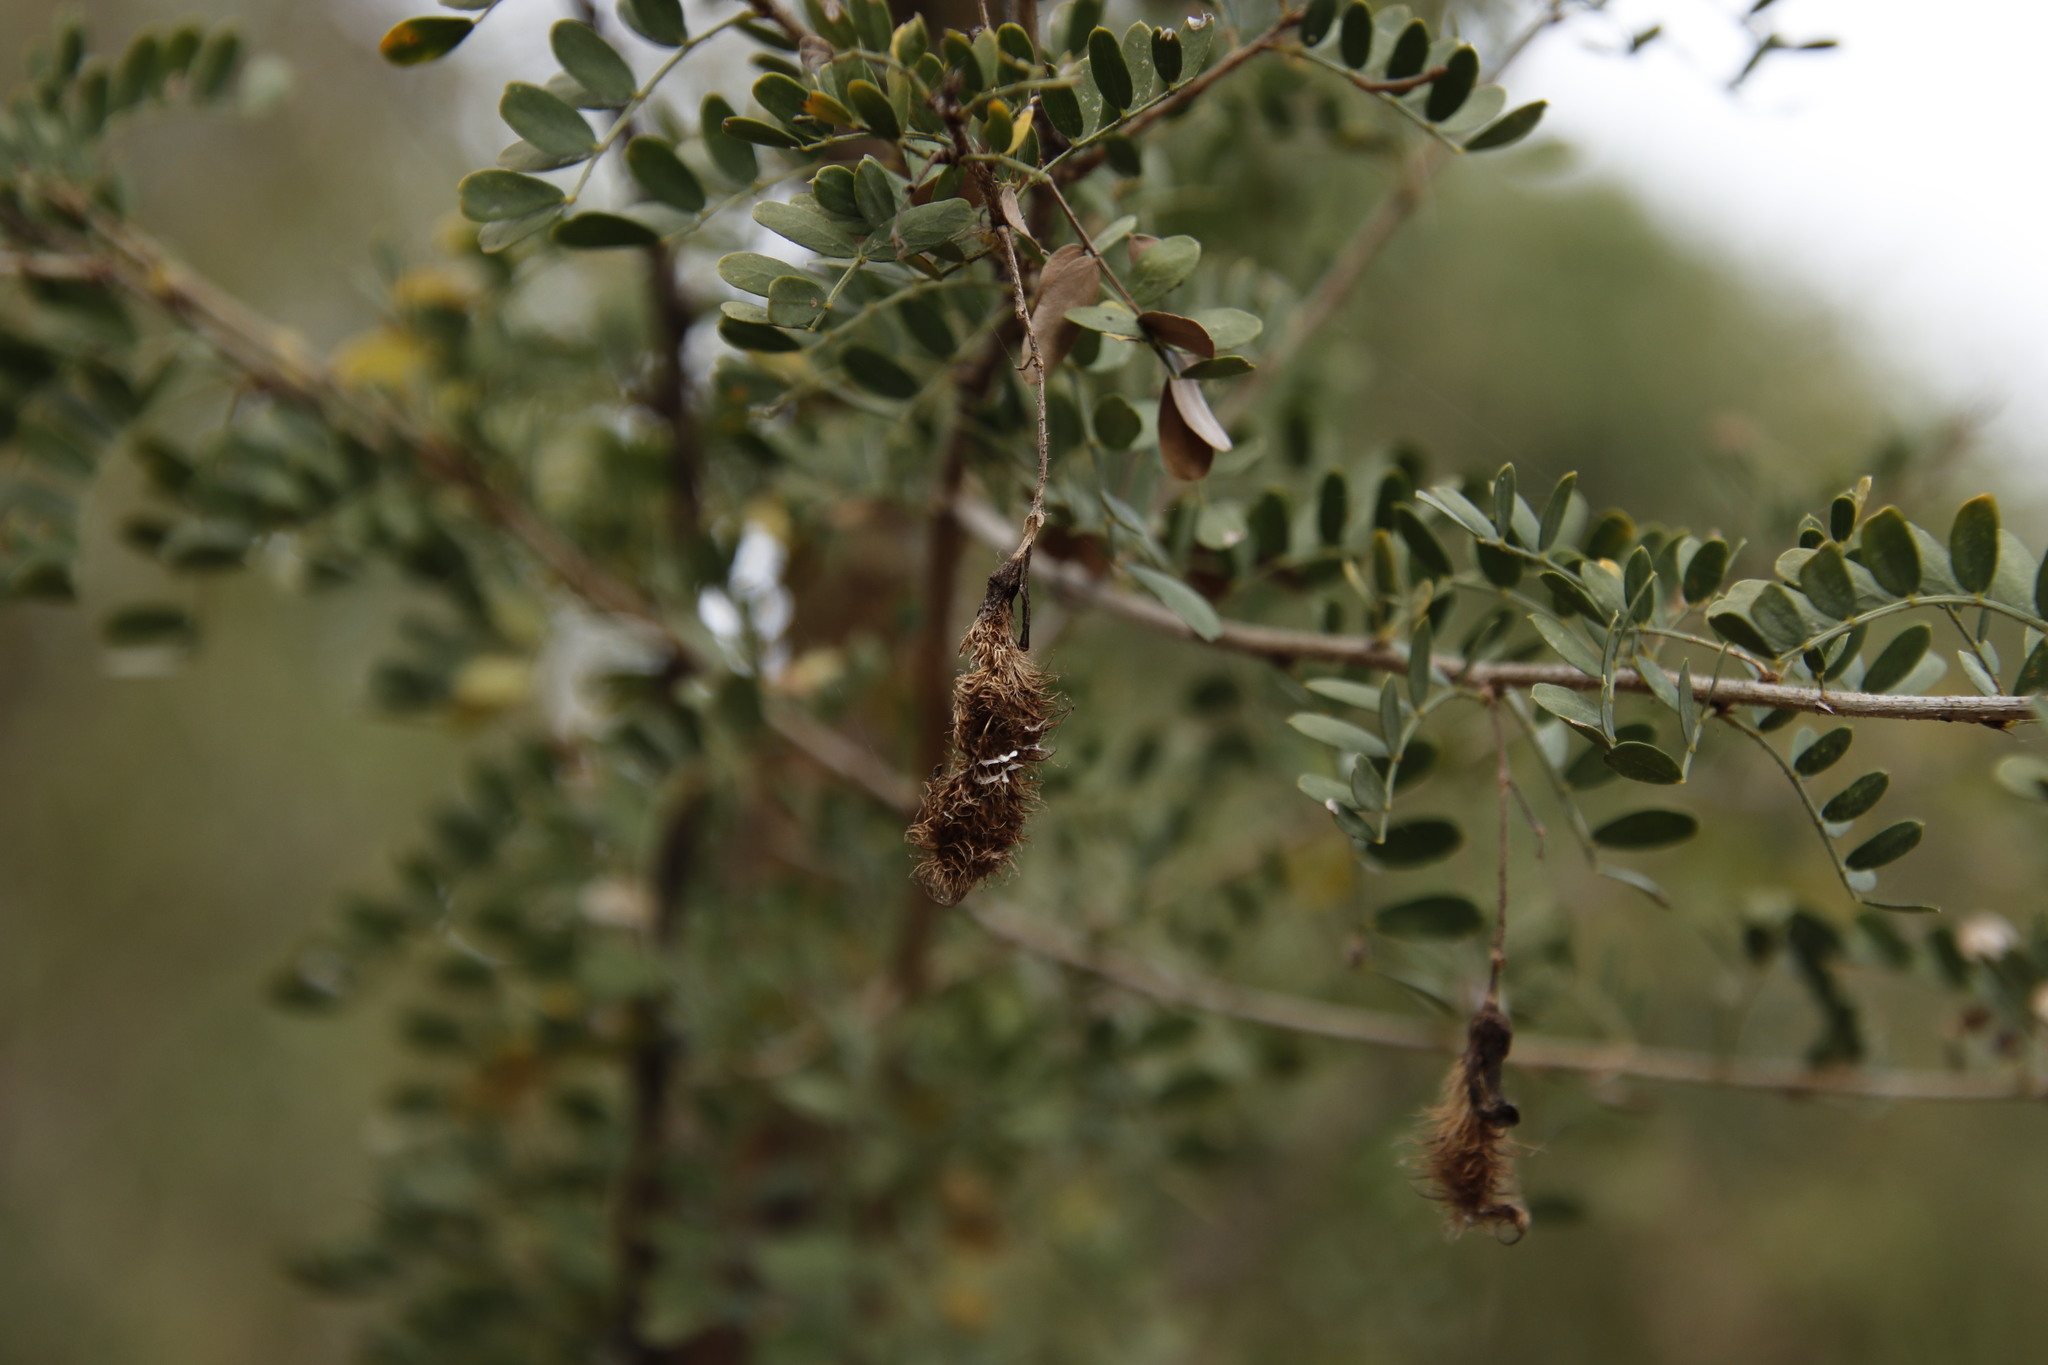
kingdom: Plantae
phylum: Tracheophyta
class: Magnoliopsida
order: Fabales
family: Fabaceae
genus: Ormocarpum
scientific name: Ormocarpum trichocarpum
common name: Caterpillar bush
